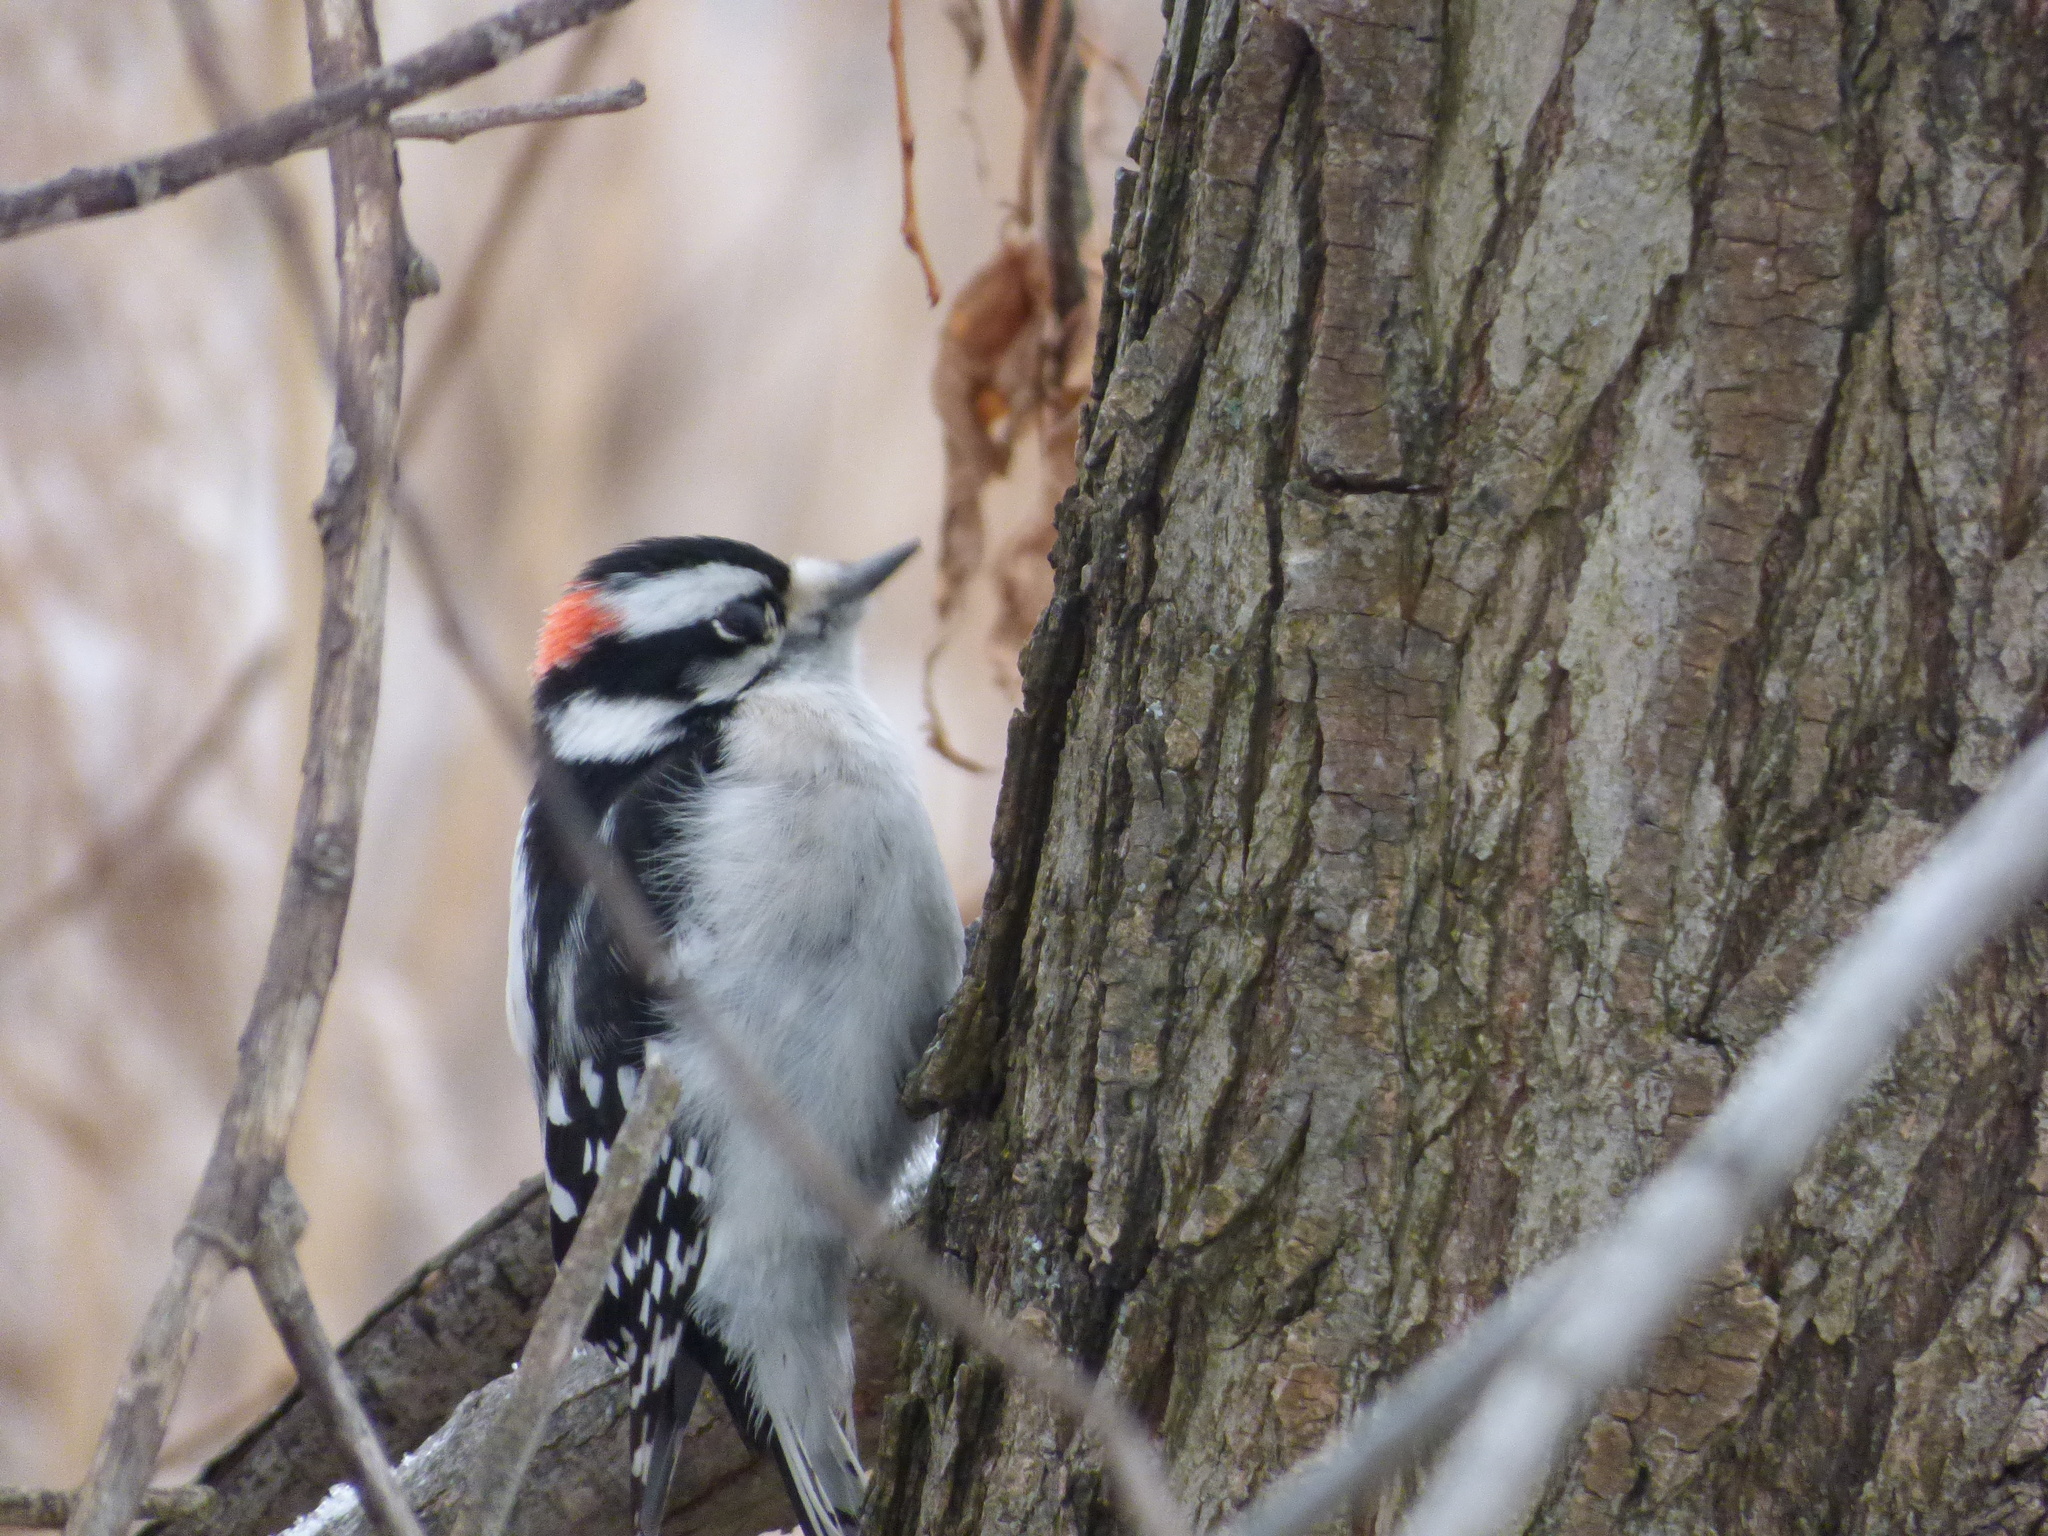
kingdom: Animalia
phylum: Chordata
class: Aves
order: Piciformes
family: Picidae
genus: Dryobates
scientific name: Dryobates pubescens
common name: Downy woodpecker
